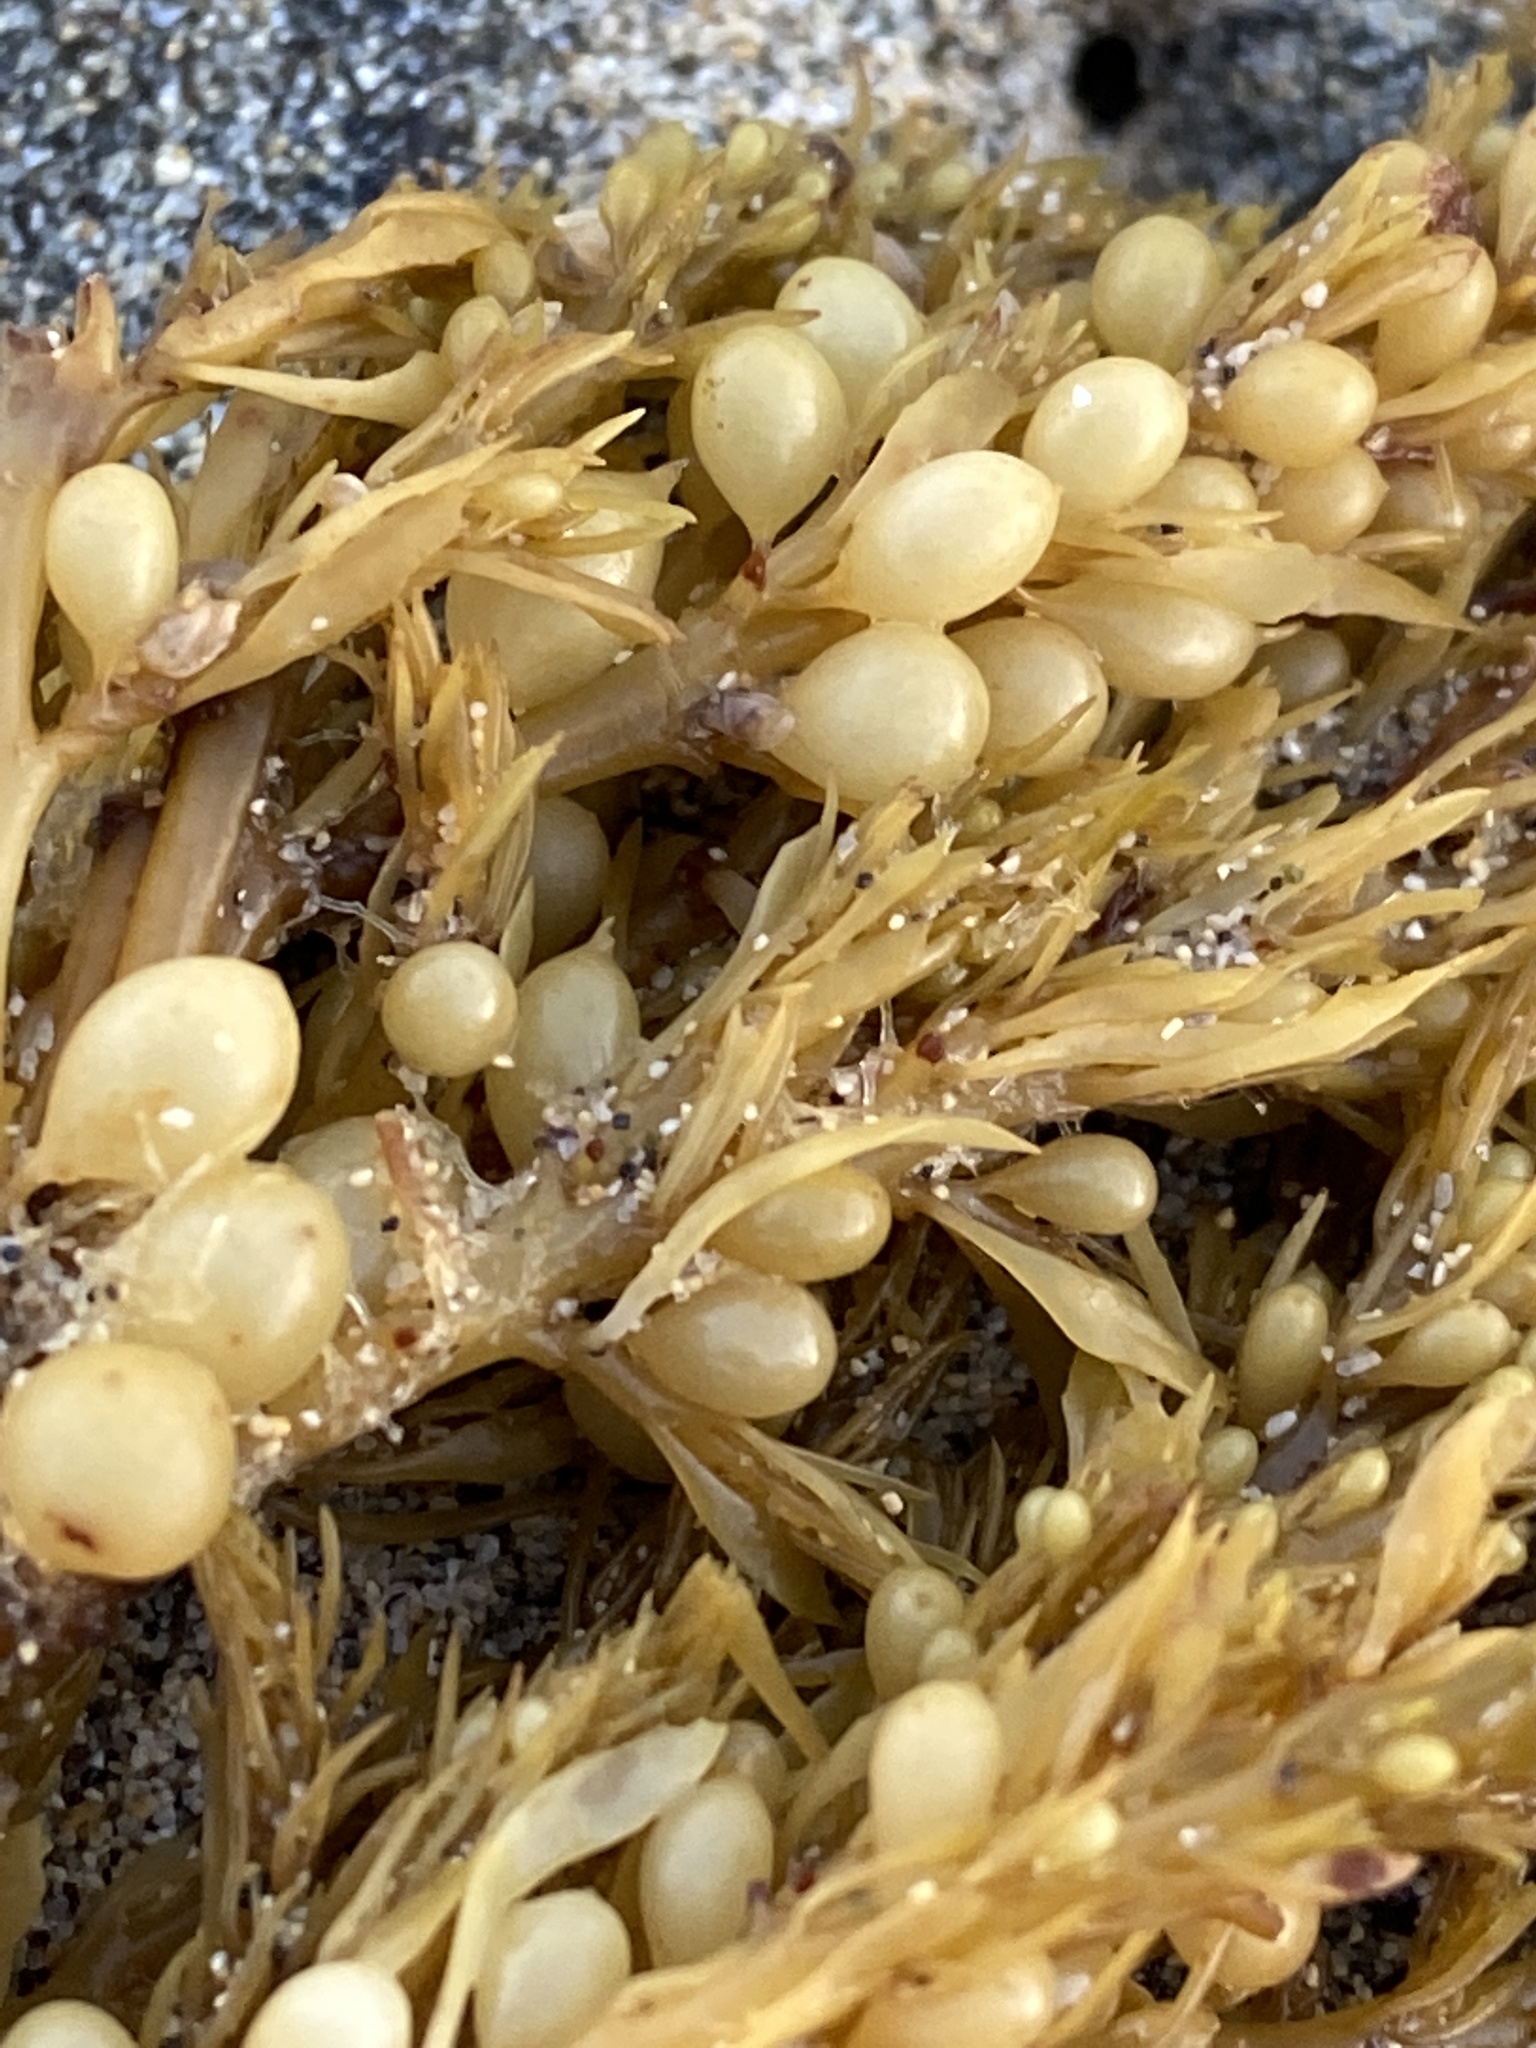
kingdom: Chromista
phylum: Ochrophyta
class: Phaeophyceae
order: Fucales
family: Sargassaceae
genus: Sargassum
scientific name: Sargassum muticum
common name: Japweed
